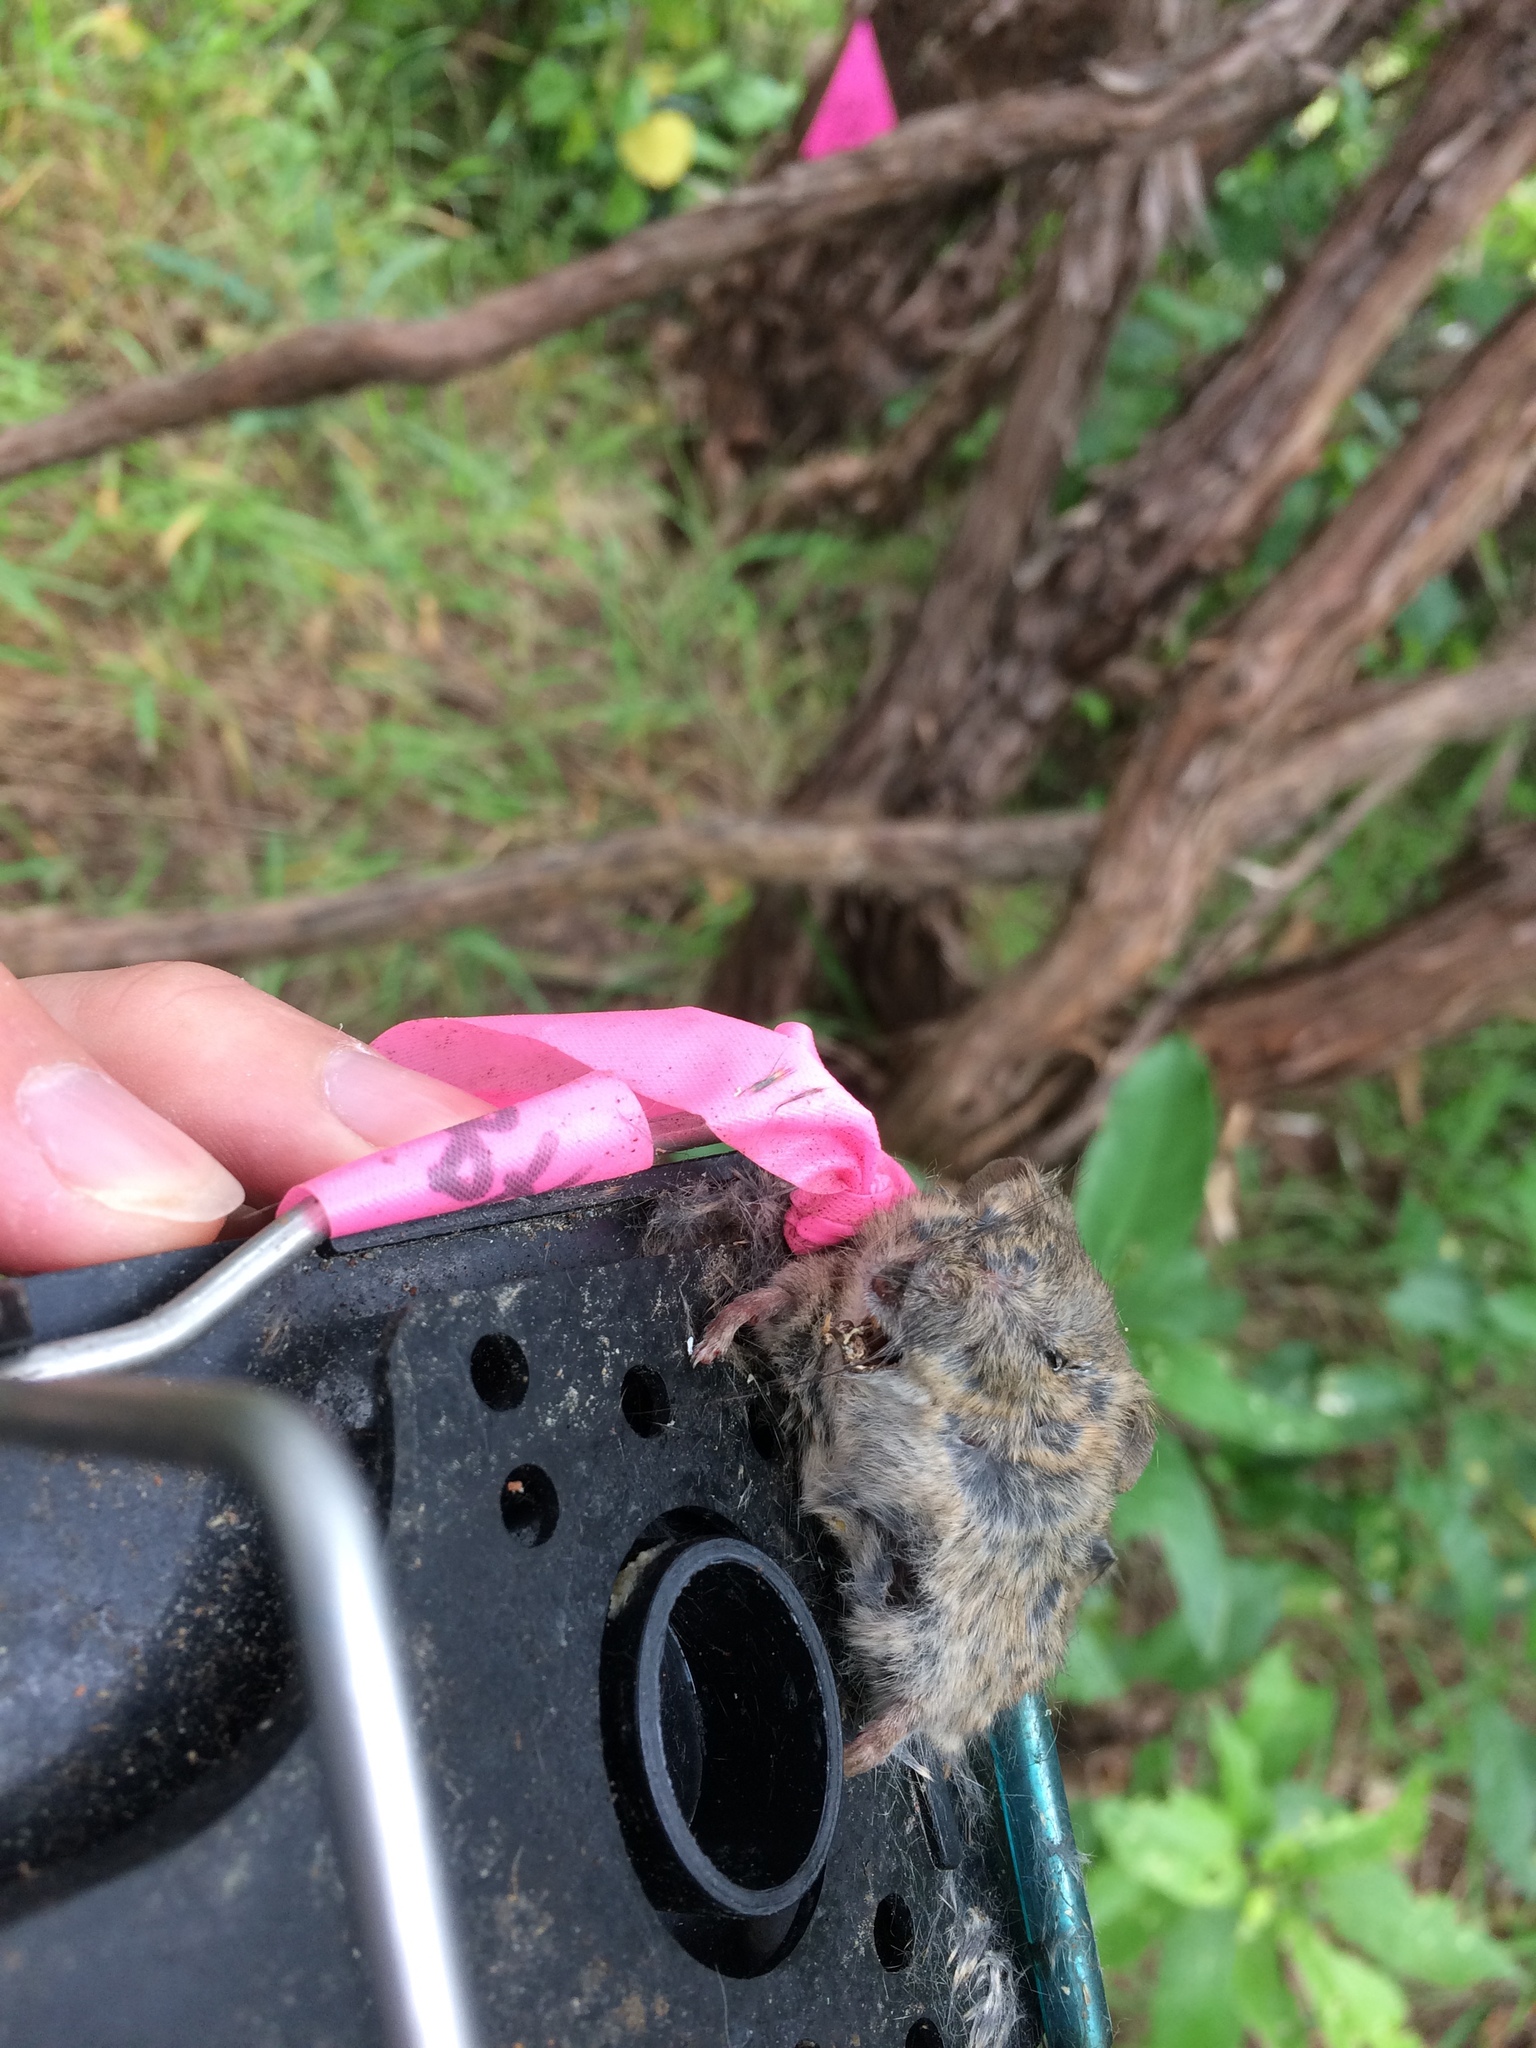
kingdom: Animalia
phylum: Chordata
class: Mammalia
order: Rodentia
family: Muridae
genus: Mus
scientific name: Mus musculus
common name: House mouse
